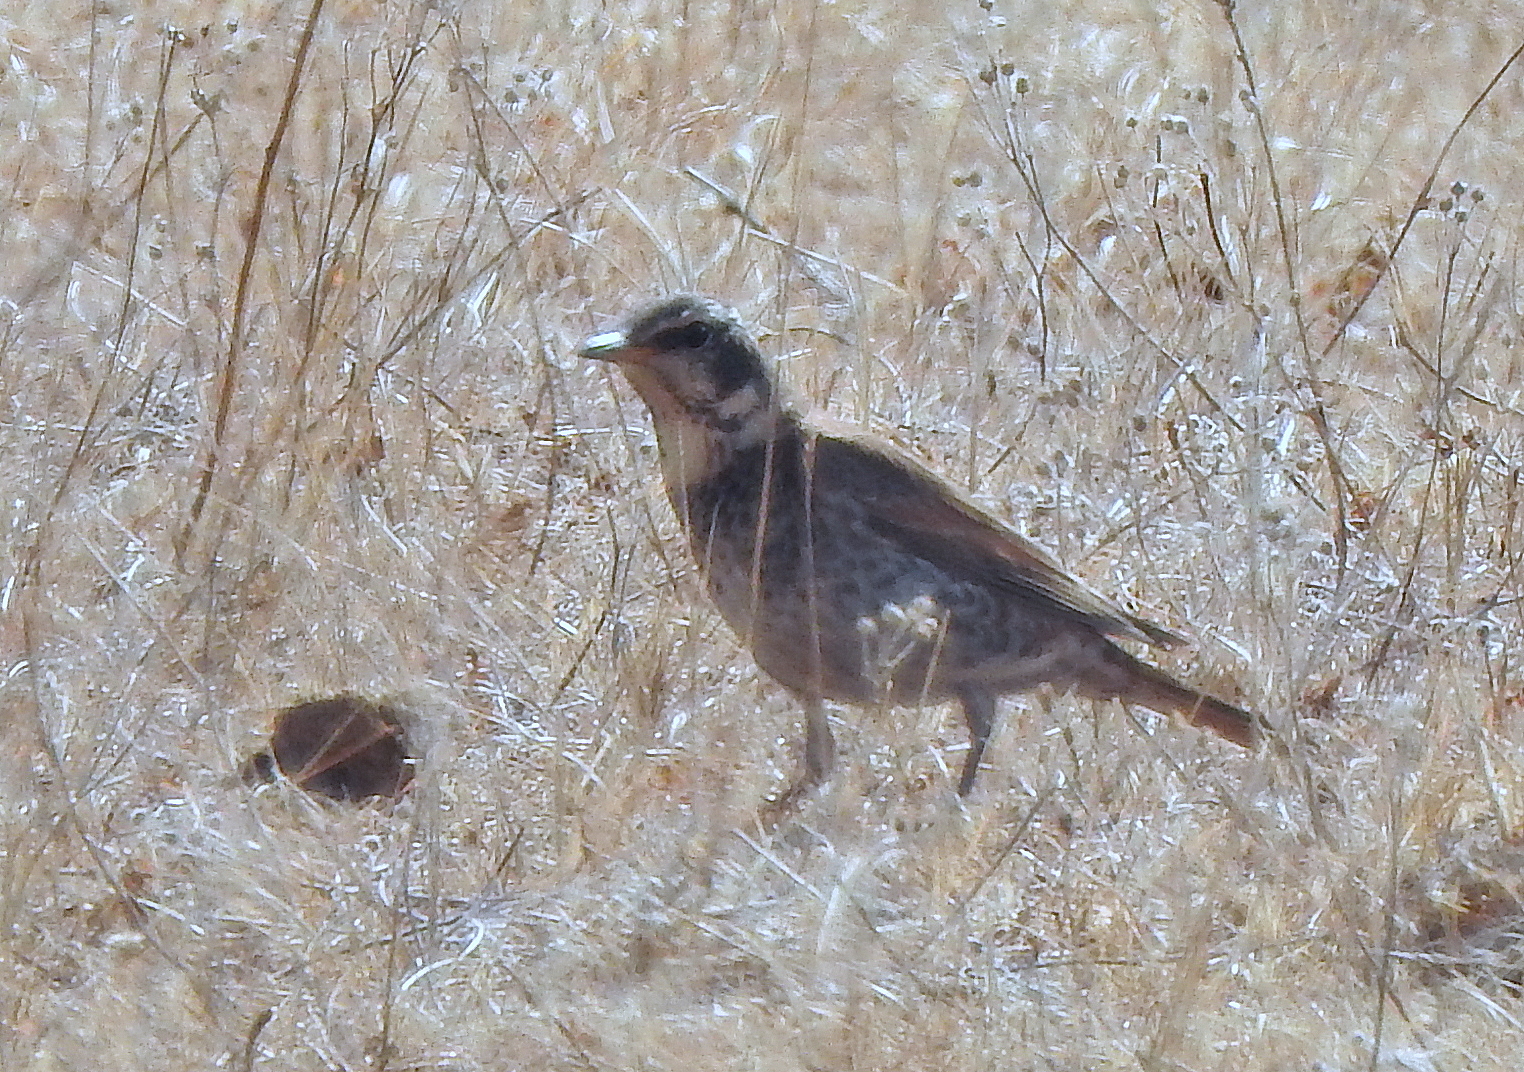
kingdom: Animalia
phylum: Chordata
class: Aves
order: Passeriformes
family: Turdidae
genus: Turdus
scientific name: Turdus eunomus
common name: Dusky thrush
